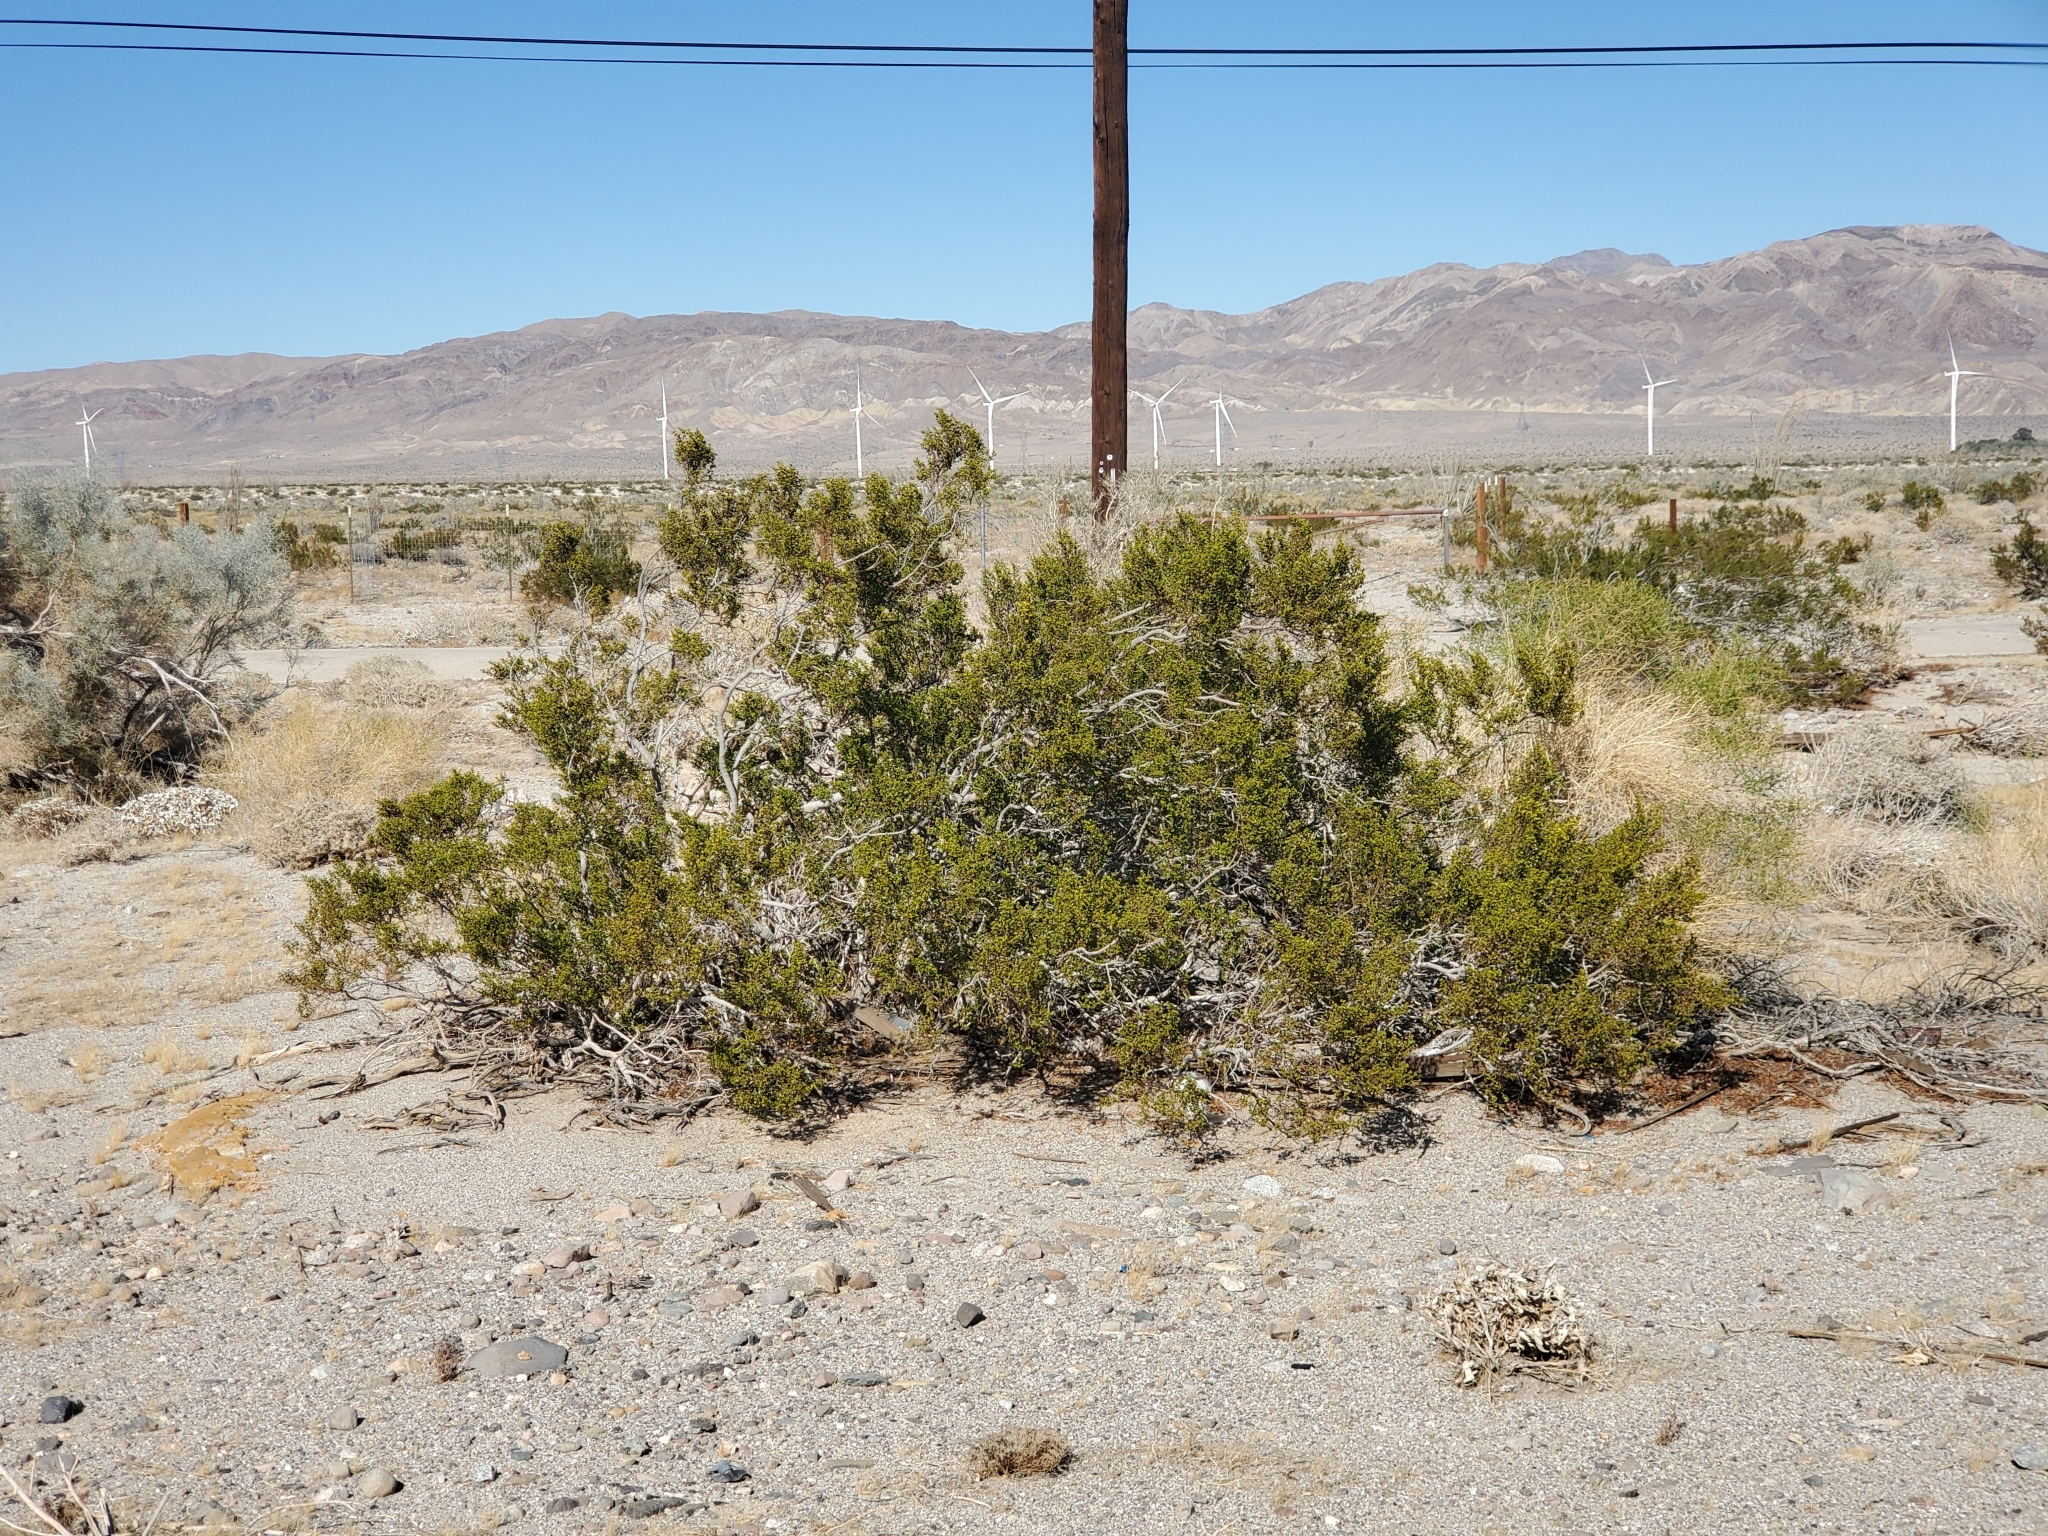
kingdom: Plantae
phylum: Tracheophyta
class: Magnoliopsida
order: Zygophyllales
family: Zygophyllaceae
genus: Larrea
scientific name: Larrea tridentata
